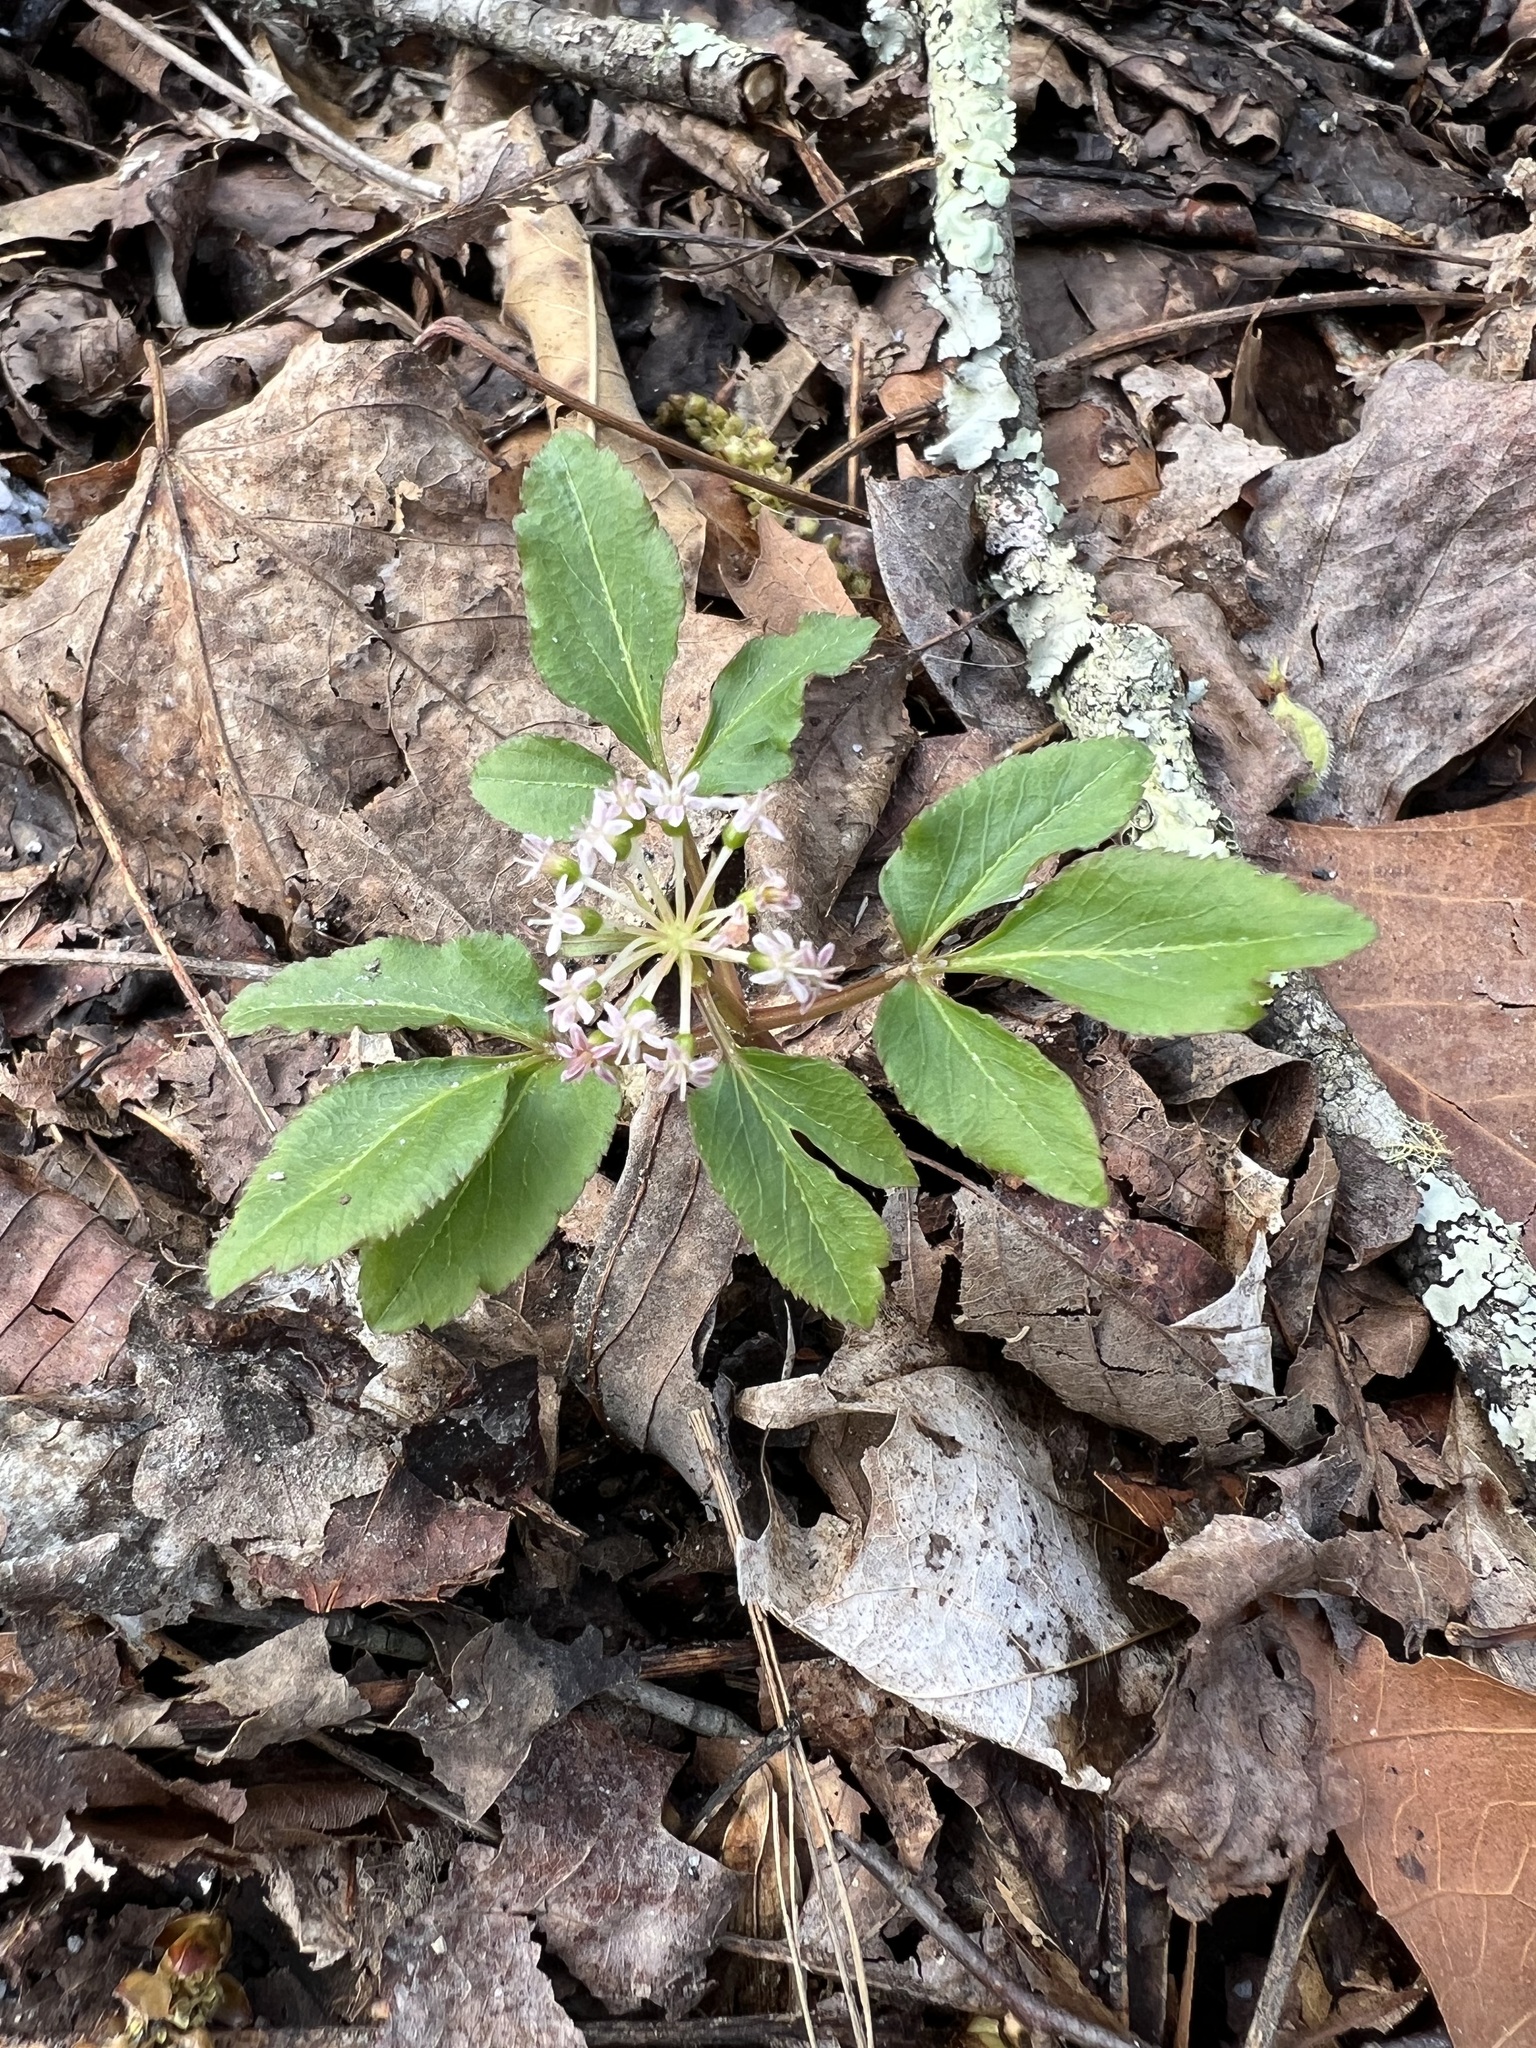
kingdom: Plantae
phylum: Tracheophyta
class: Magnoliopsida
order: Apiales
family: Araliaceae
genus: Panax
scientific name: Panax trifolius
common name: Dwarf ginseng
